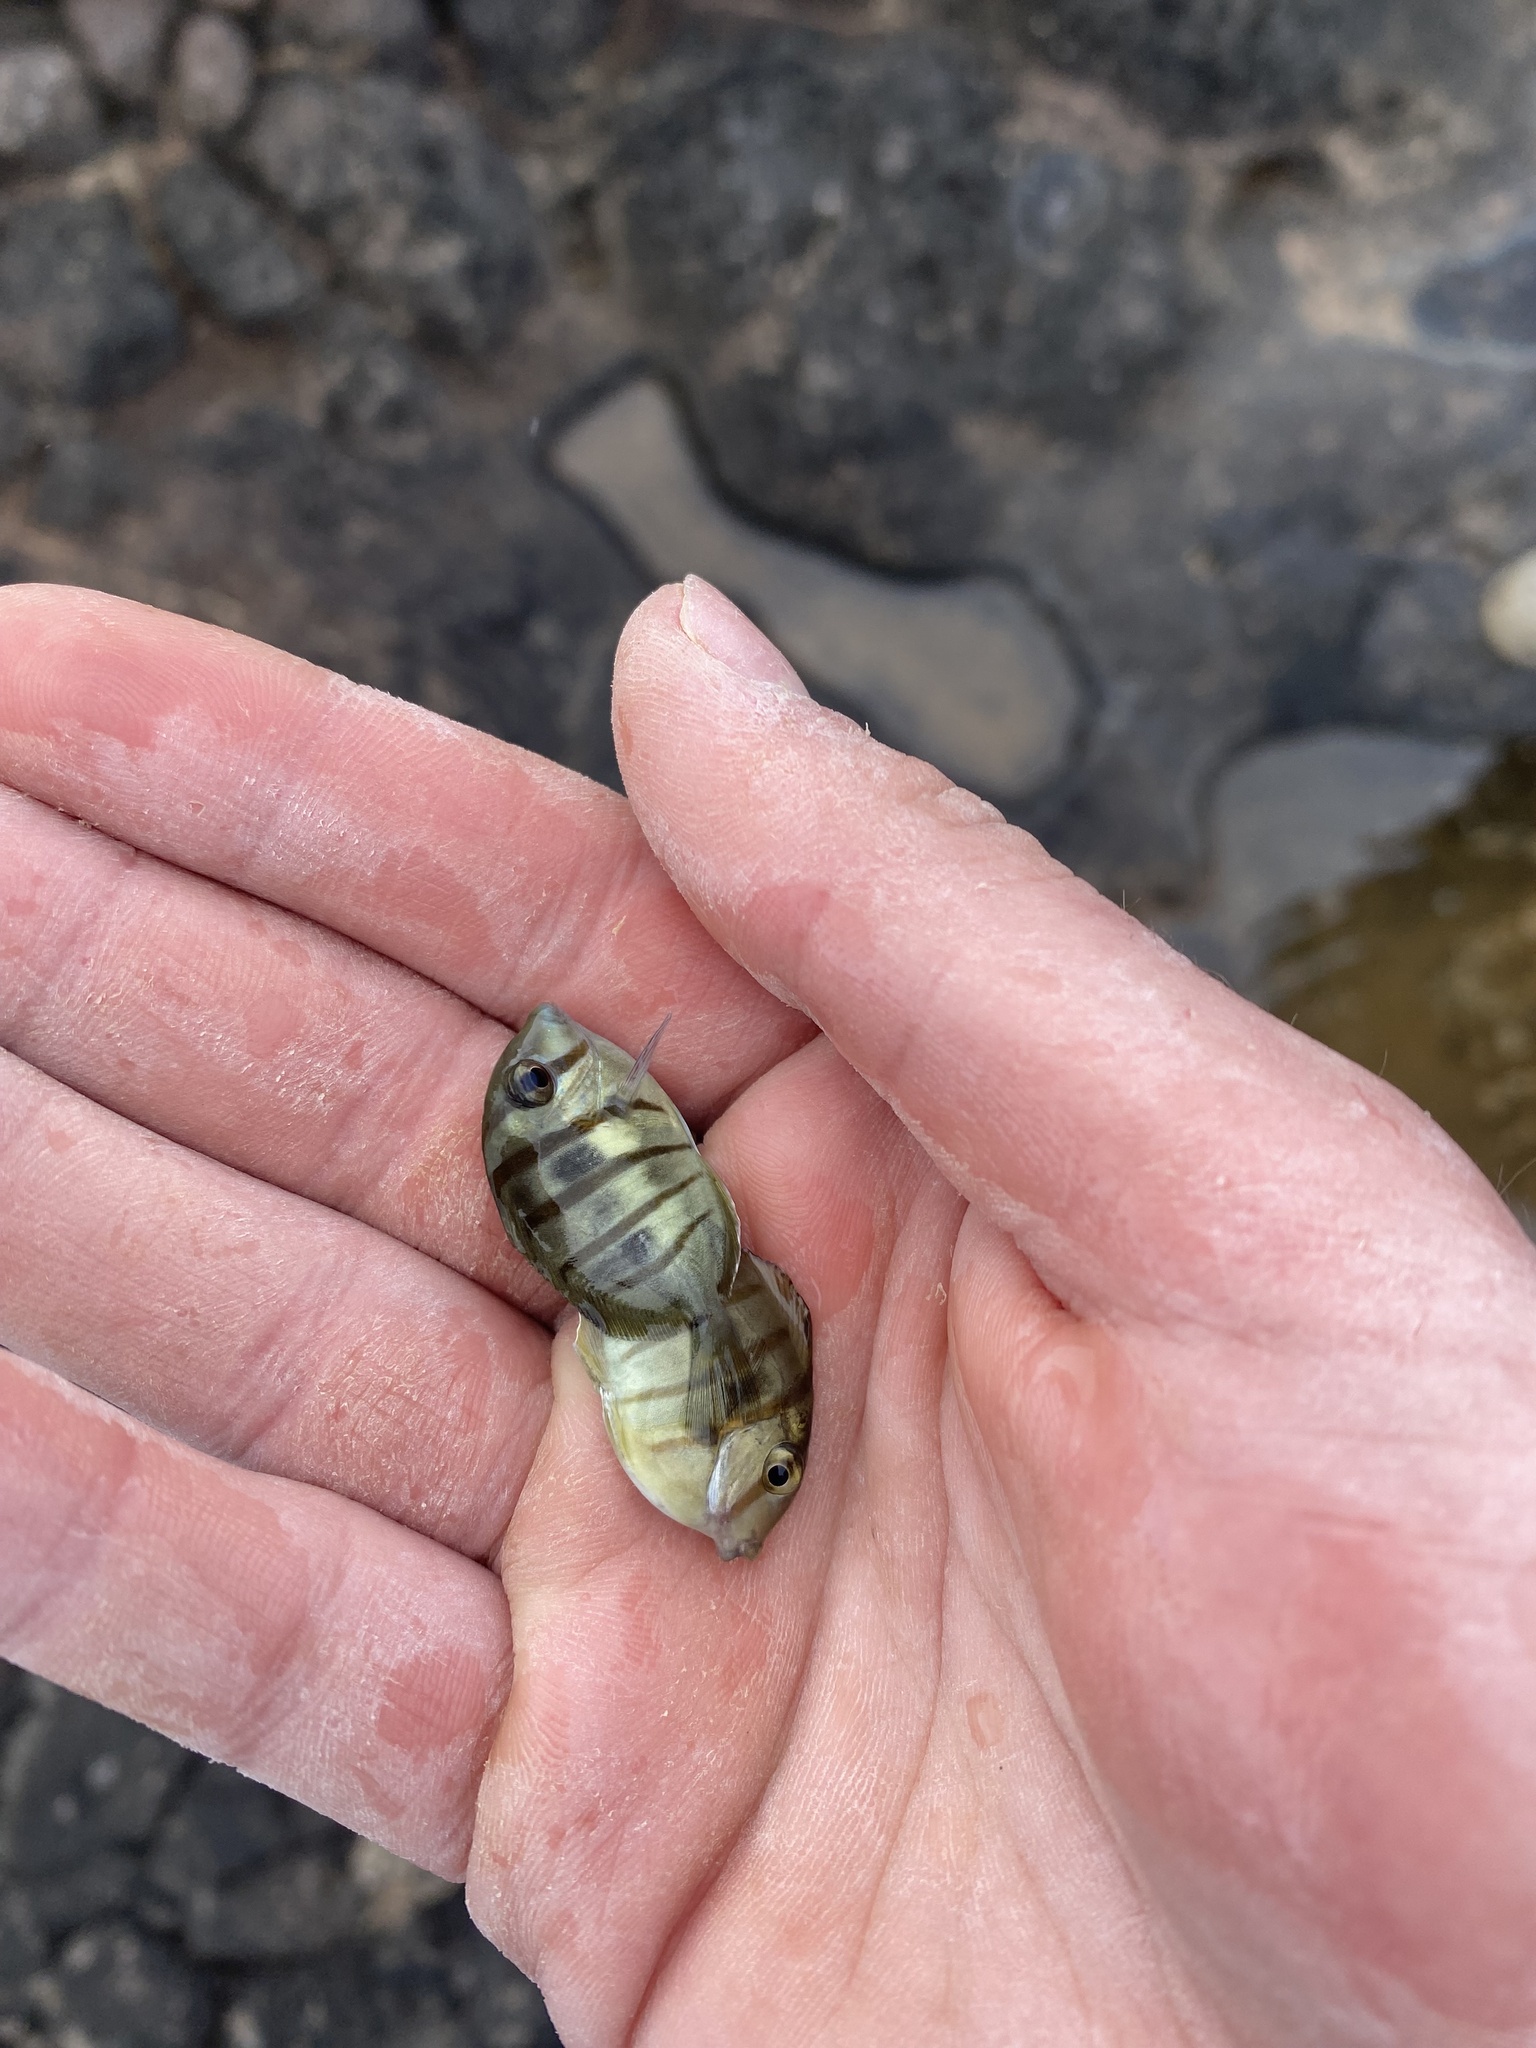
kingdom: Animalia
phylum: Chordata
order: Perciformes
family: Acanthuridae
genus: Acanthurus
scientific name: Acanthurus triostegus
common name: Convict surgeonfish
